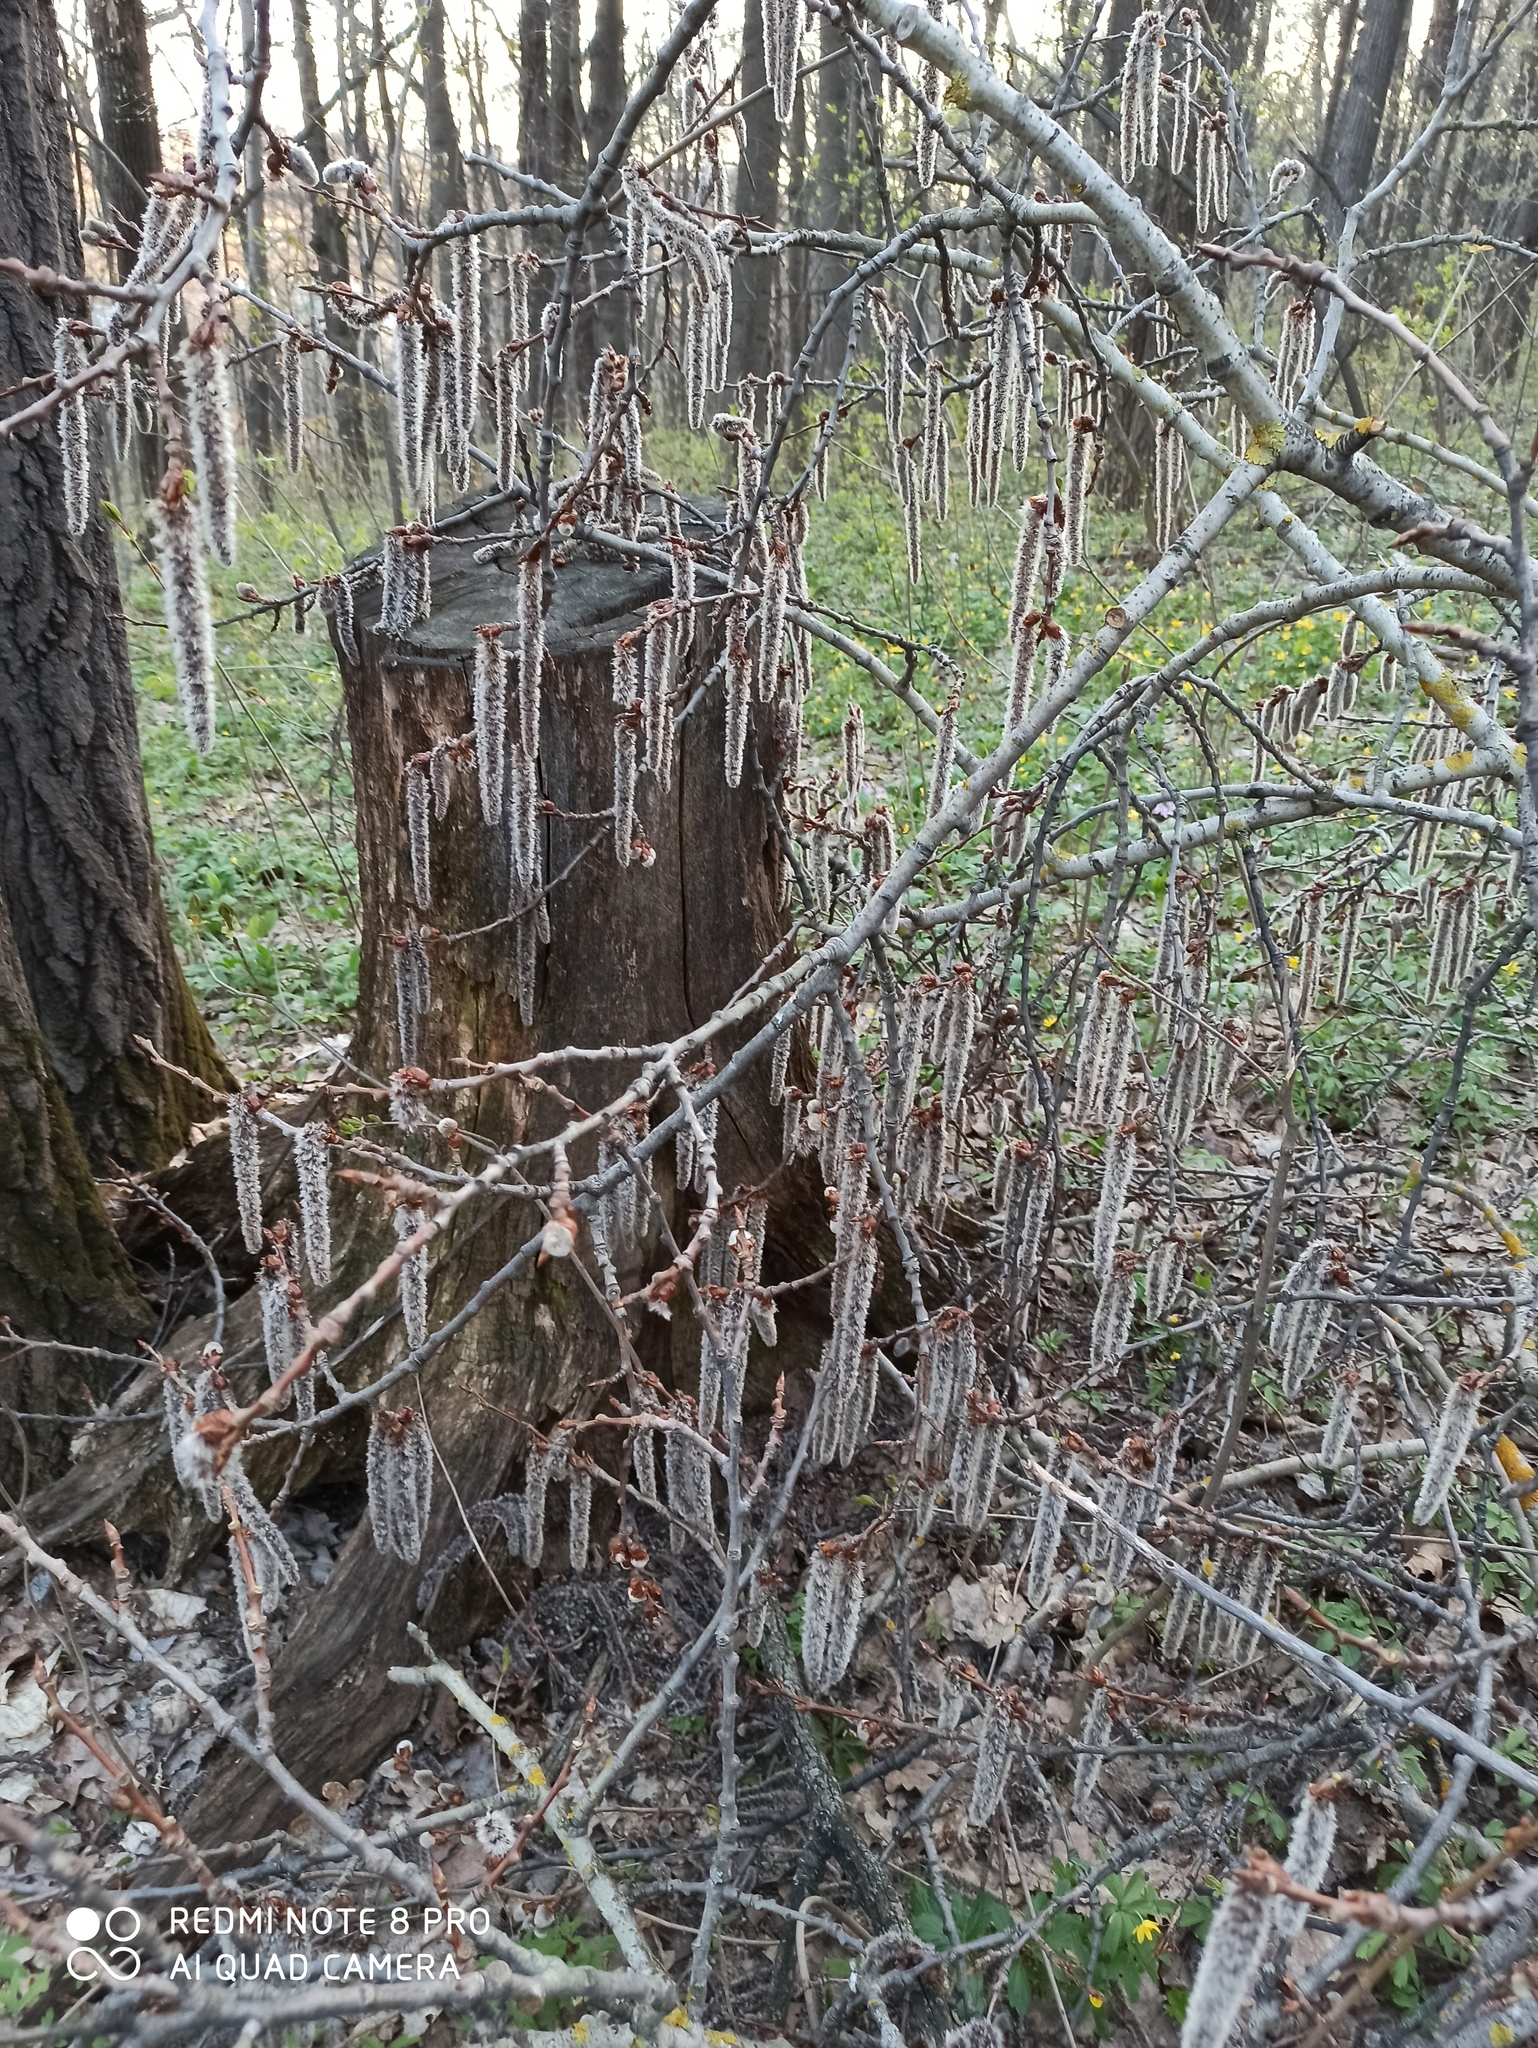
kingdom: Plantae
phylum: Tracheophyta
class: Magnoliopsida
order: Malpighiales
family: Salicaceae
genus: Populus
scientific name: Populus tremula
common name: European aspen
